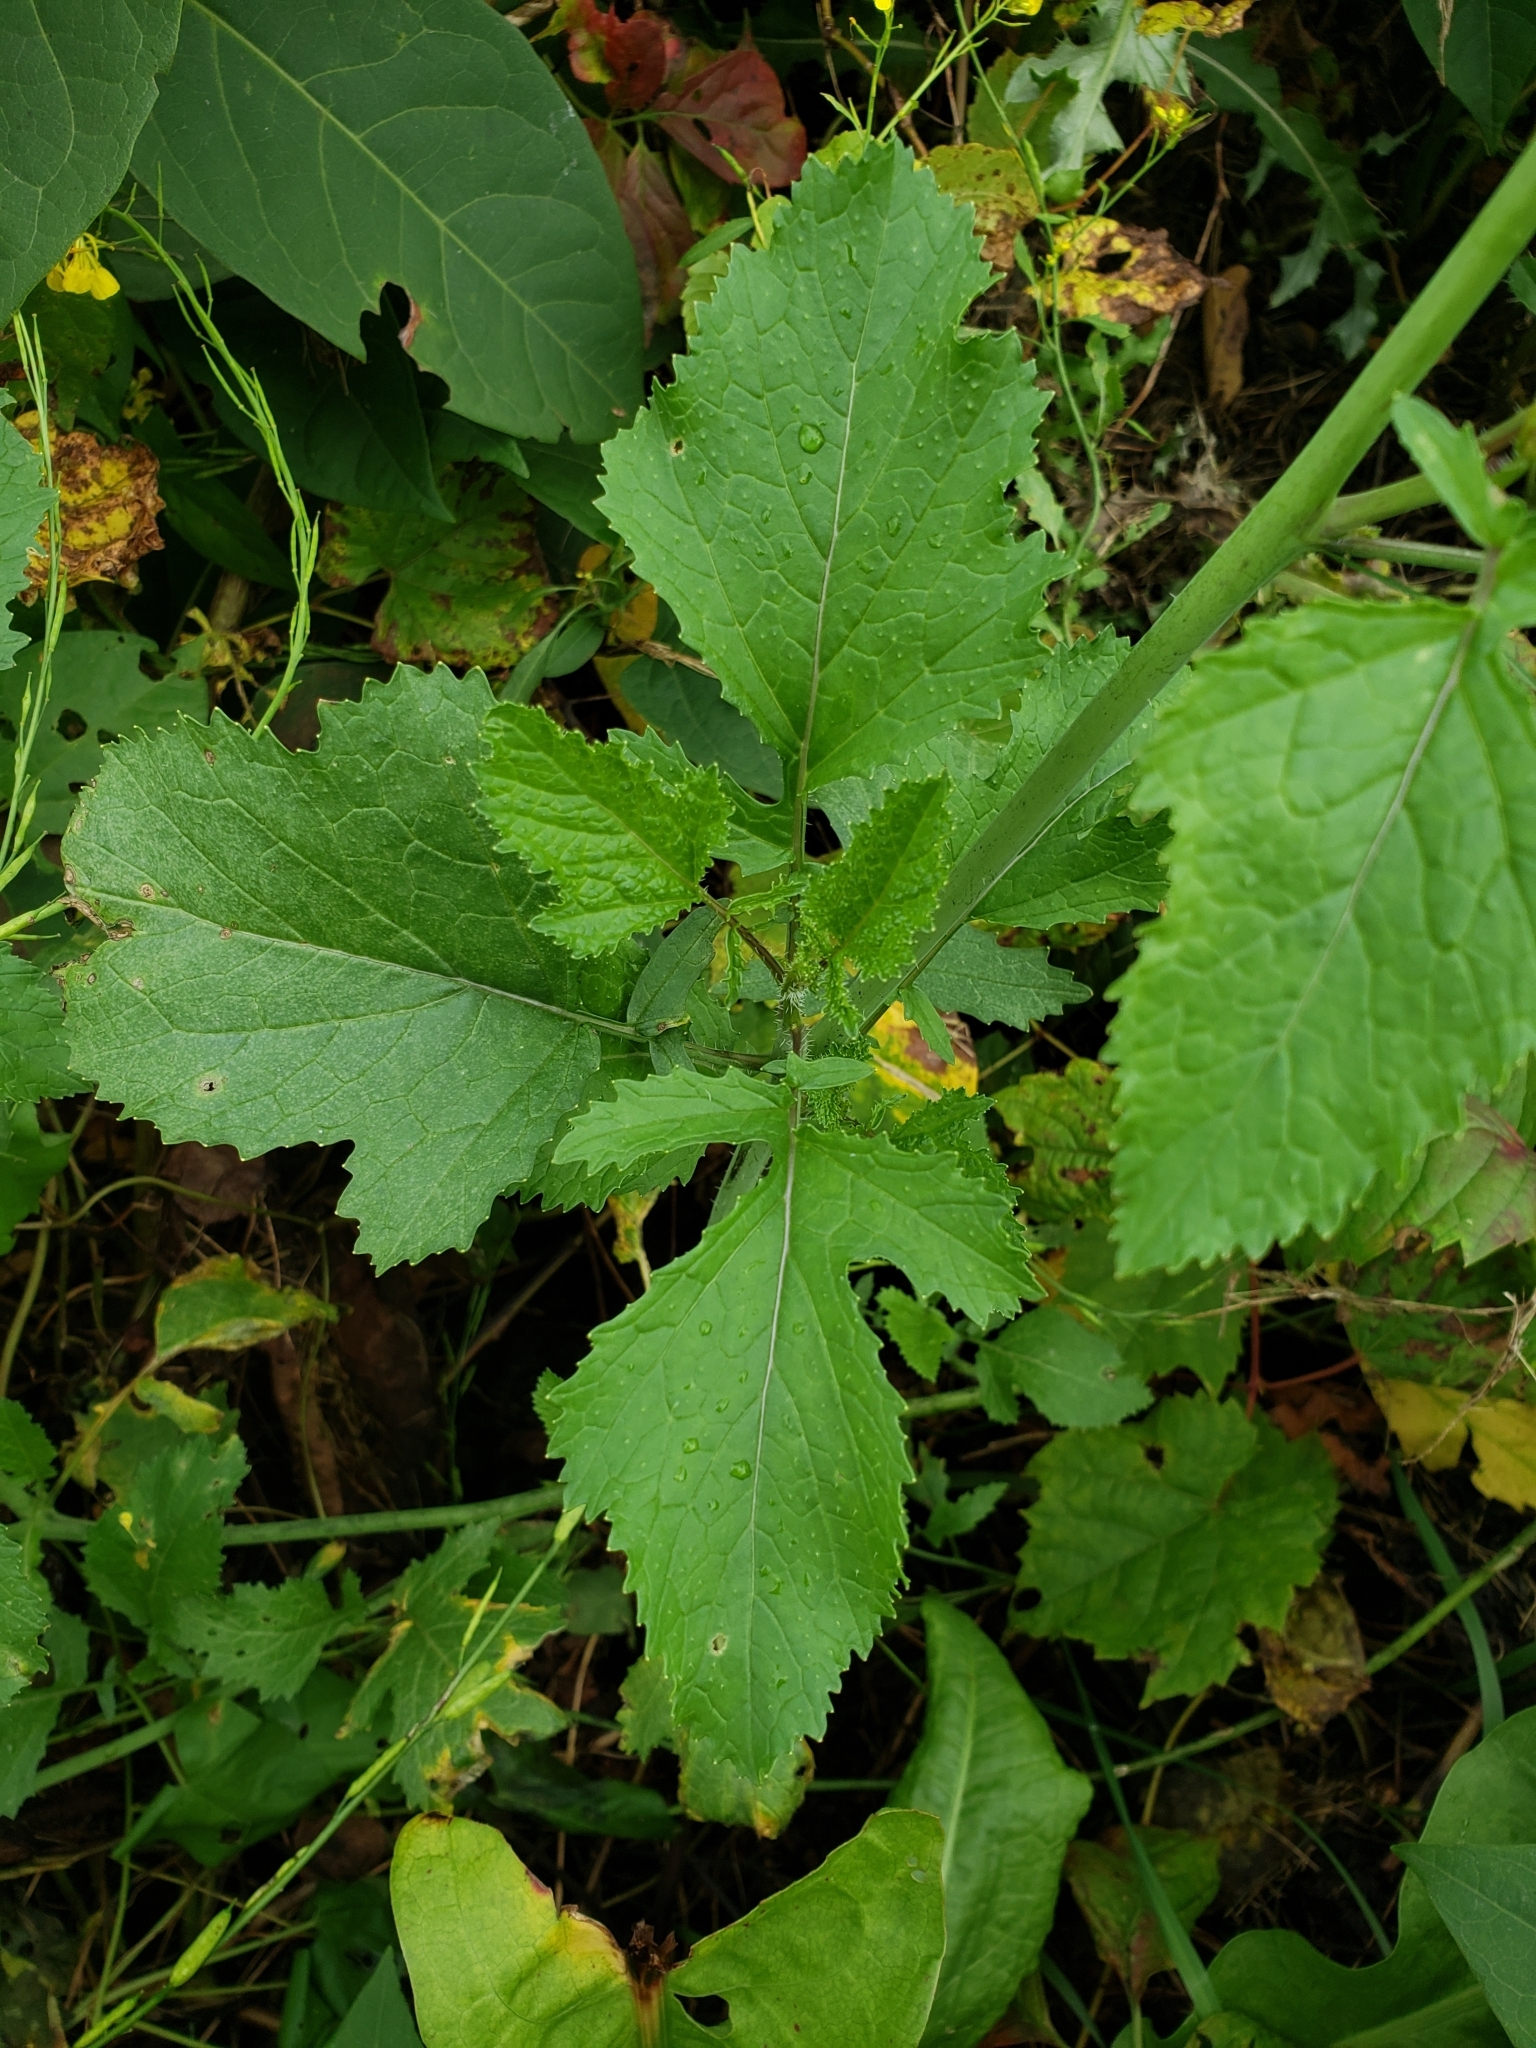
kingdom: Plantae
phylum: Tracheophyta
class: Magnoliopsida
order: Brassicales
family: Brassicaceae
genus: Brassica
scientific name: Brassica nigra
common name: Black mustard
